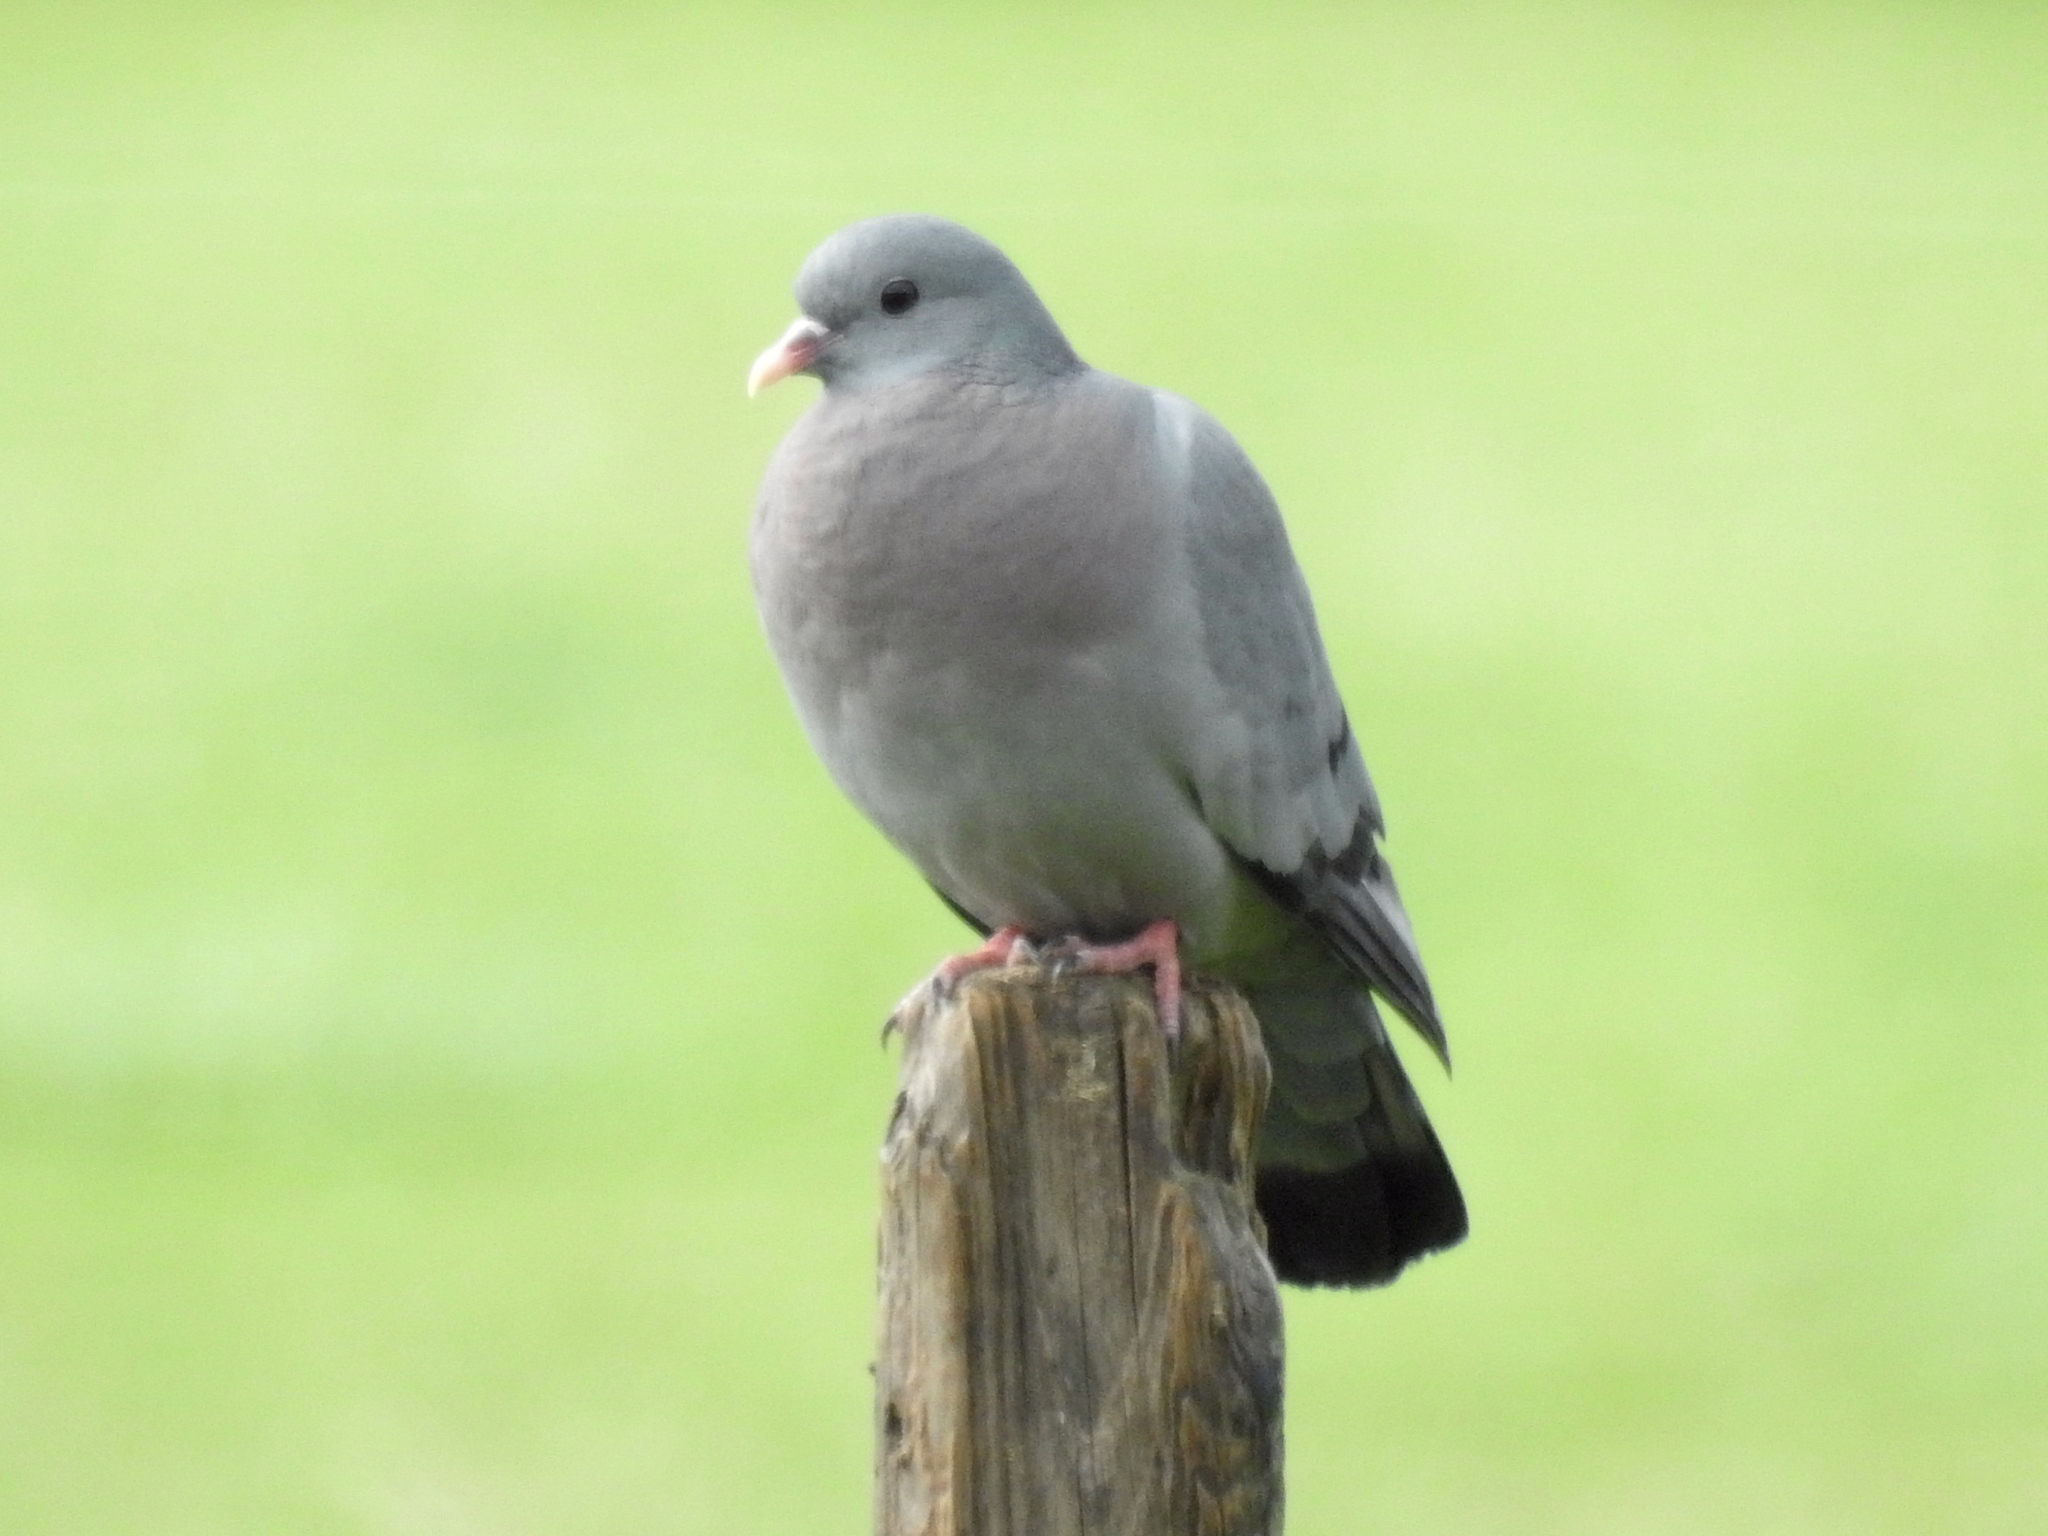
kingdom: Animalia
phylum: Chordata
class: Aves
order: Columbiformes
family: Columbidae
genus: Columba
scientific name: Columba oenas
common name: Stock dove
